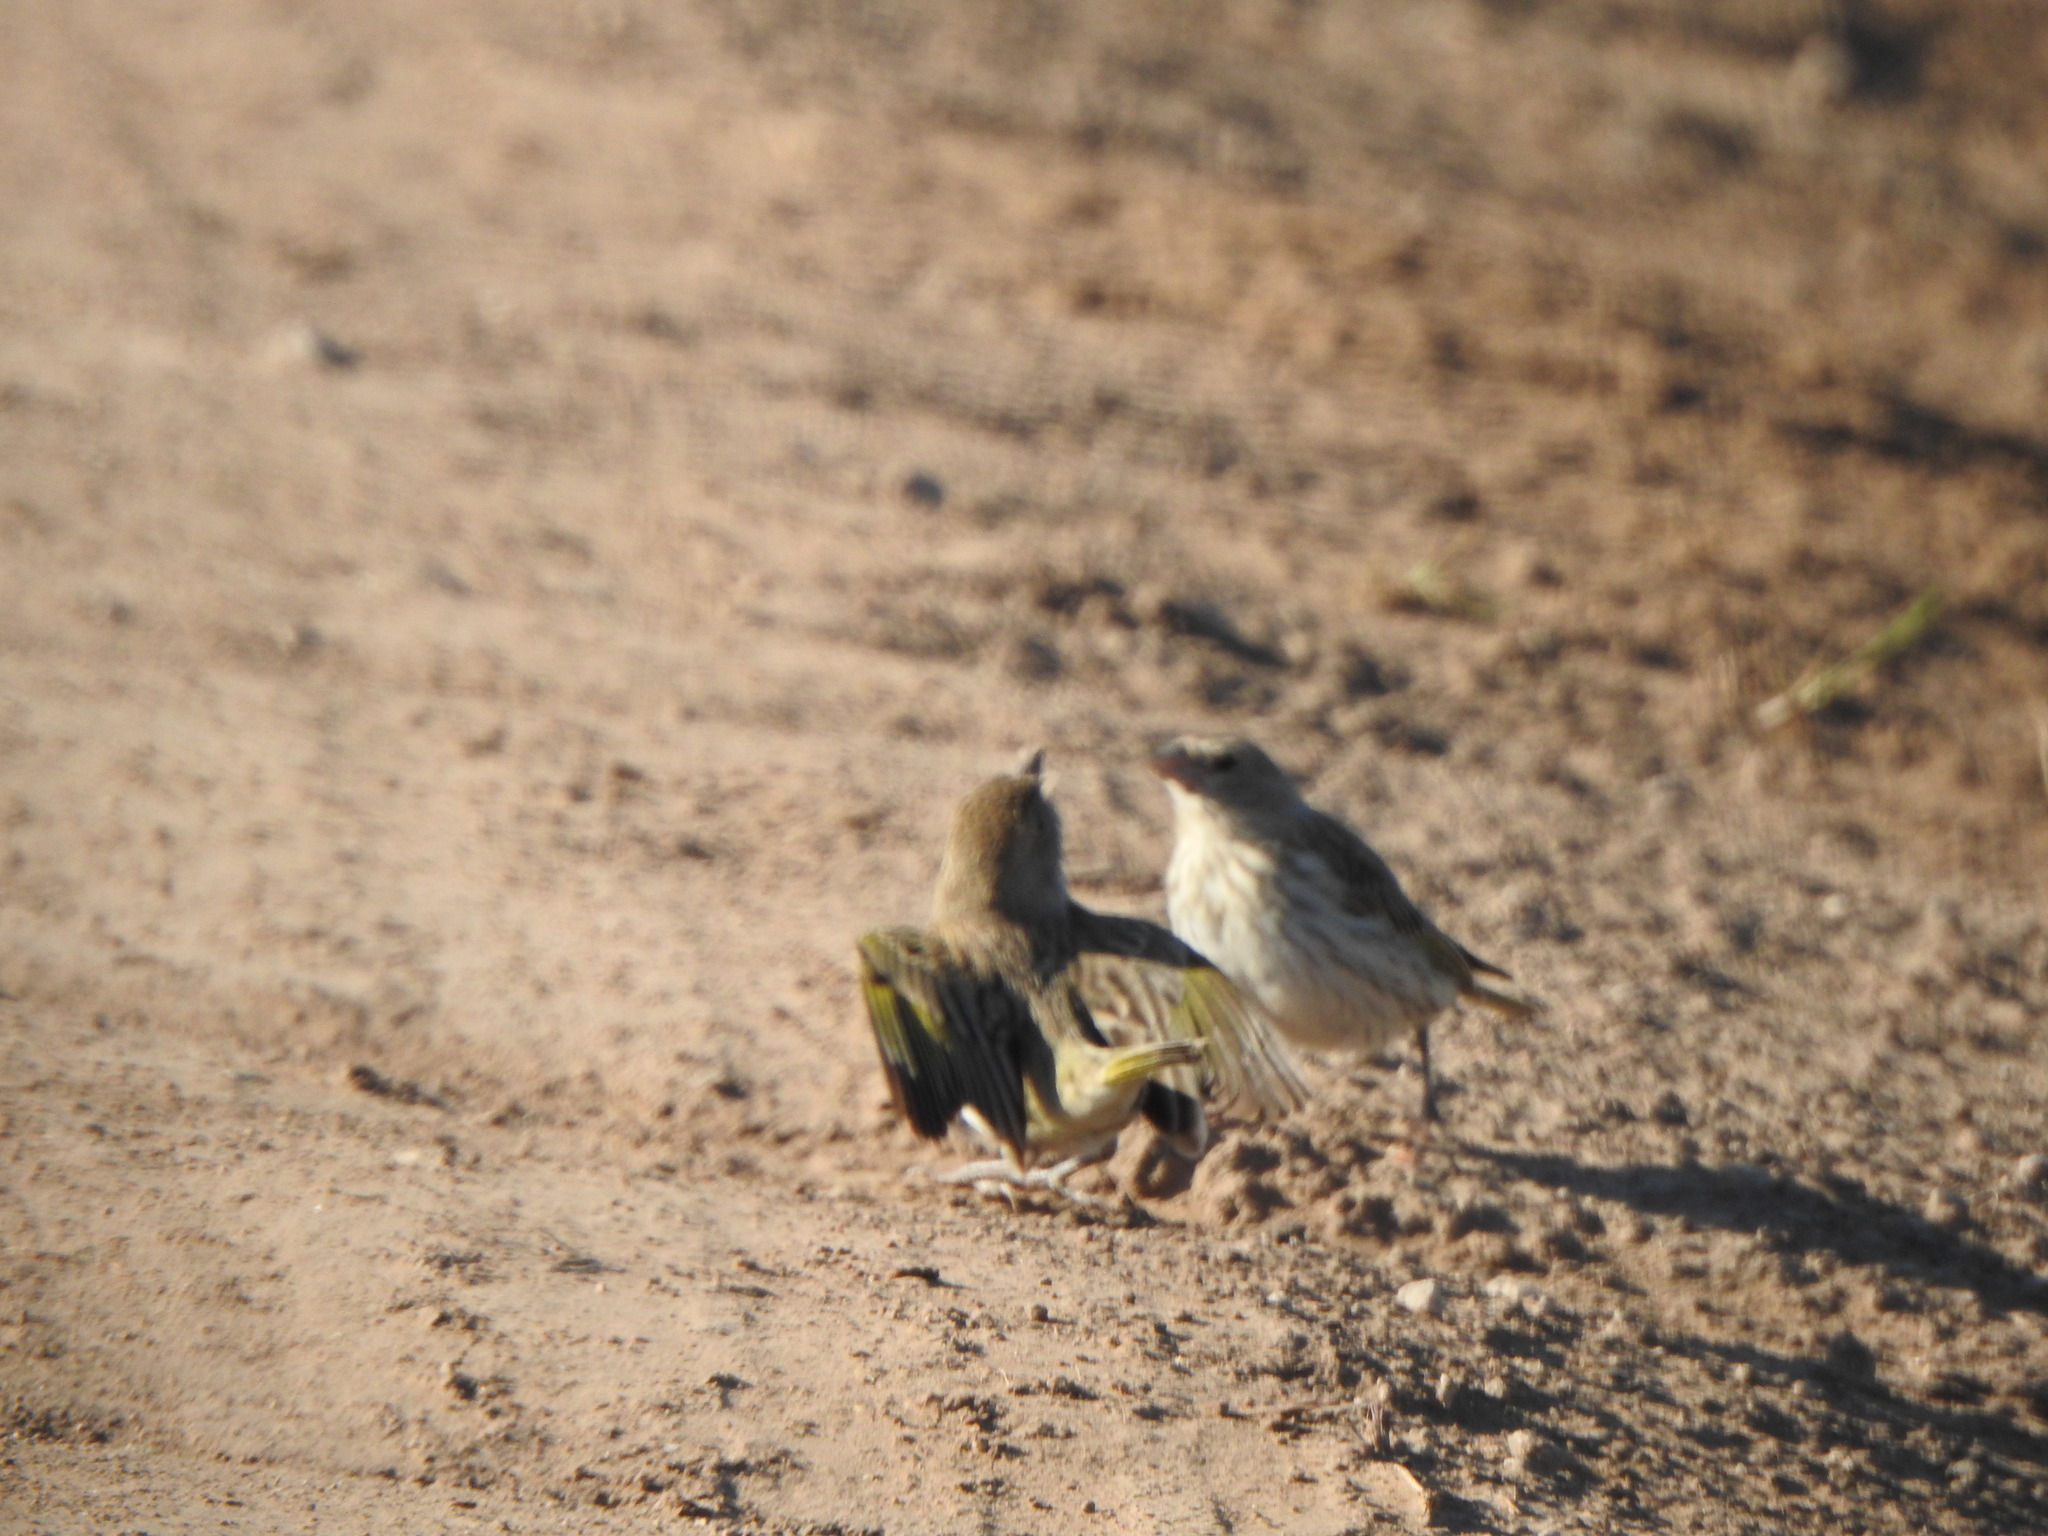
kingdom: Animalia
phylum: Chordata
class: Aves
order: Passeriformes
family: Thraupidae
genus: Sicalis
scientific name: Sicalis flaveola
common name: Saffron finch
